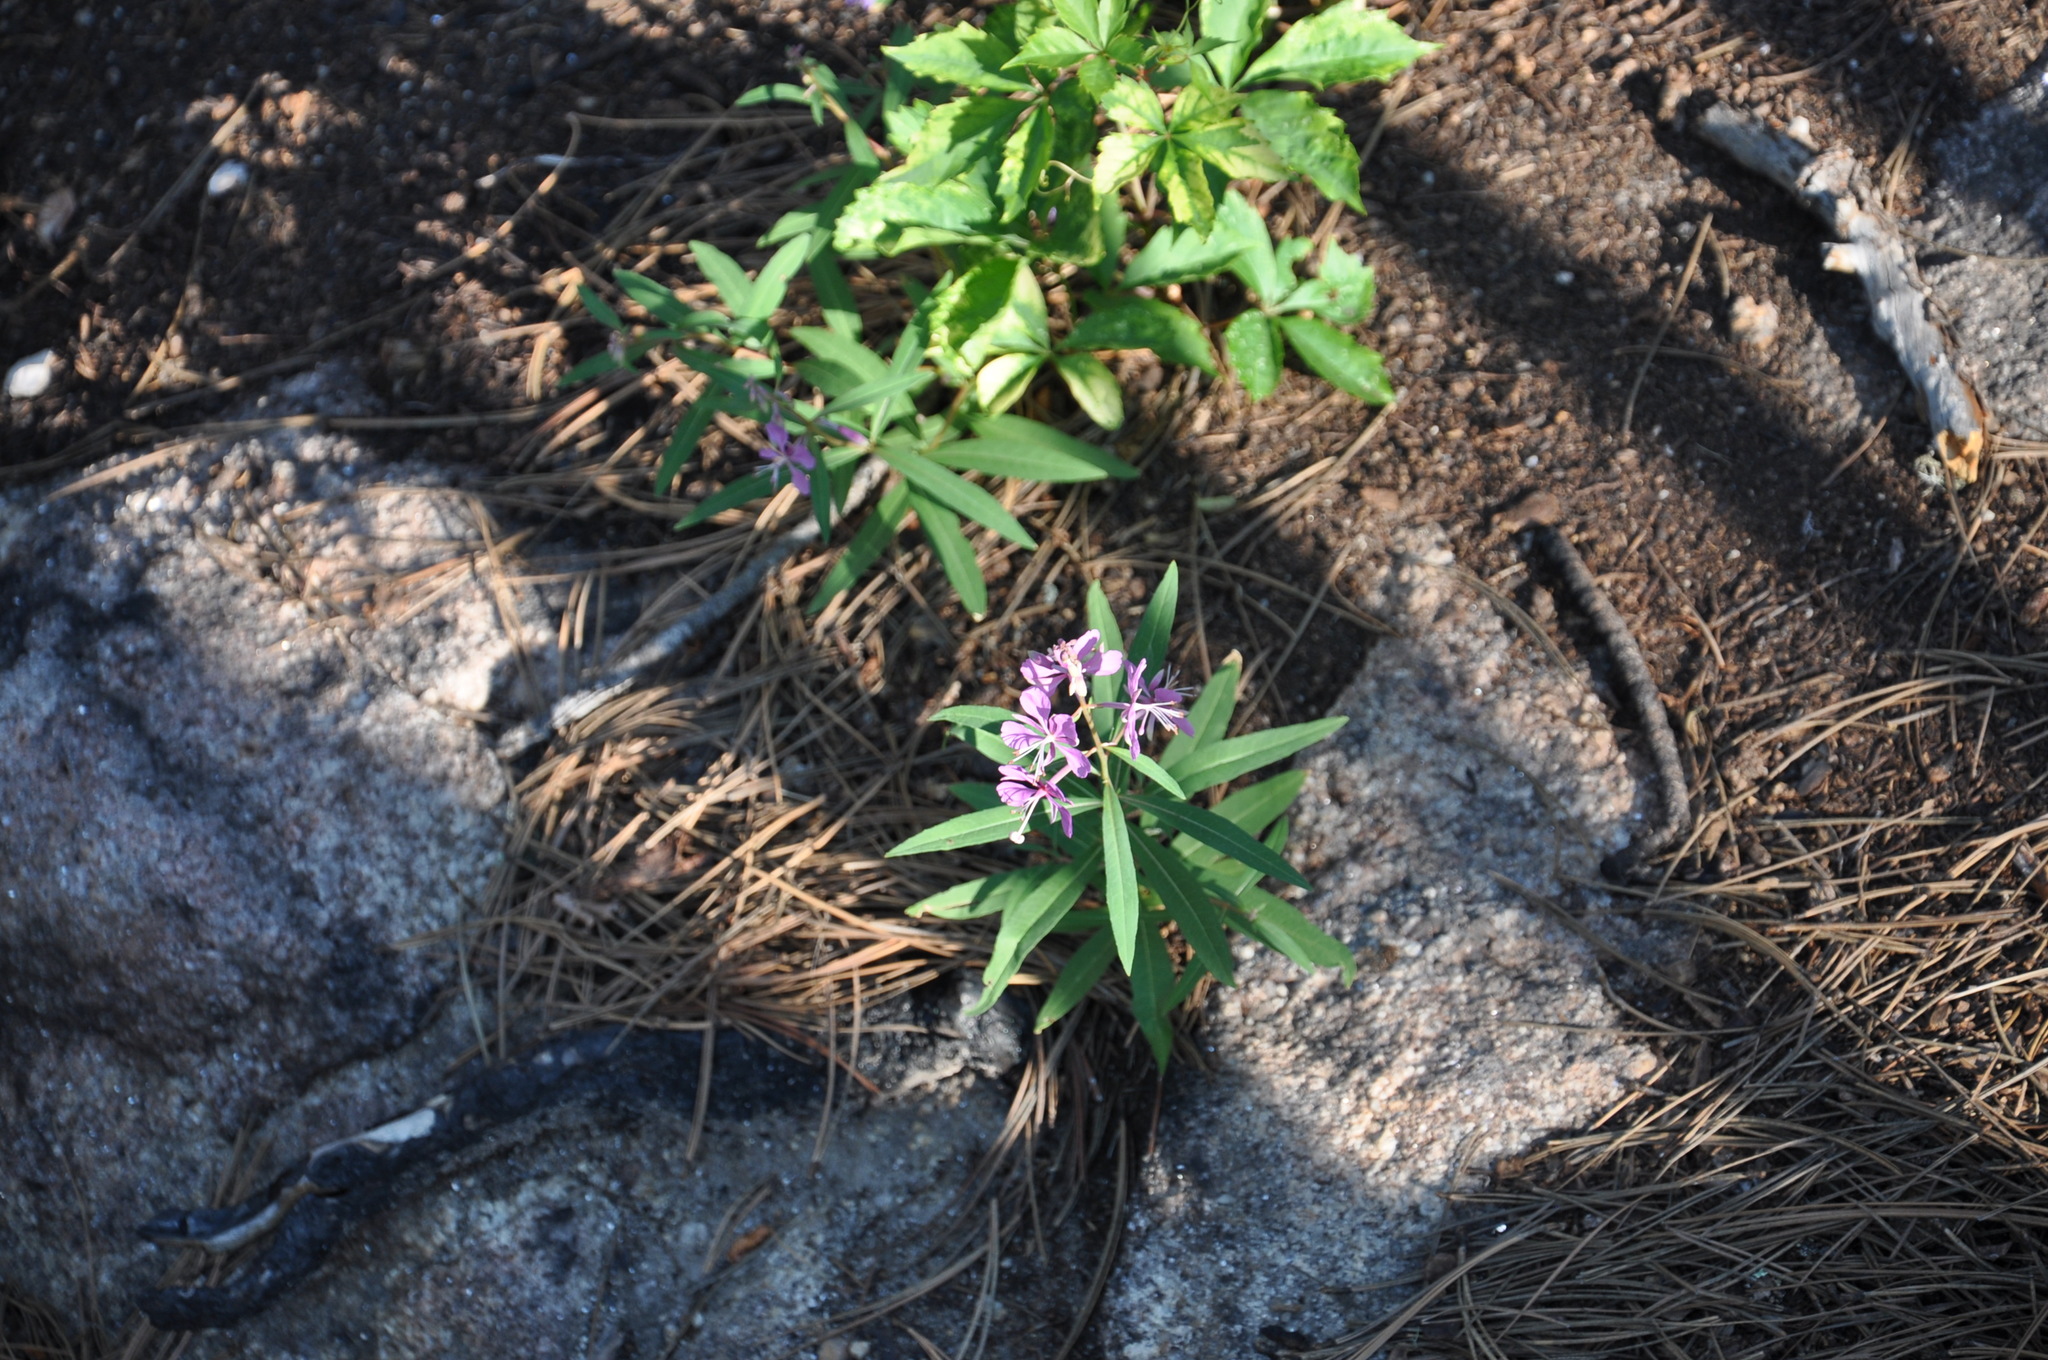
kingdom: Plantae
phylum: Tracheophyta
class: Magnoliopsida
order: Myrtales
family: Onagraceae
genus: Chamaenerion
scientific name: Chamaenerion angustifolium
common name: Fireweed
